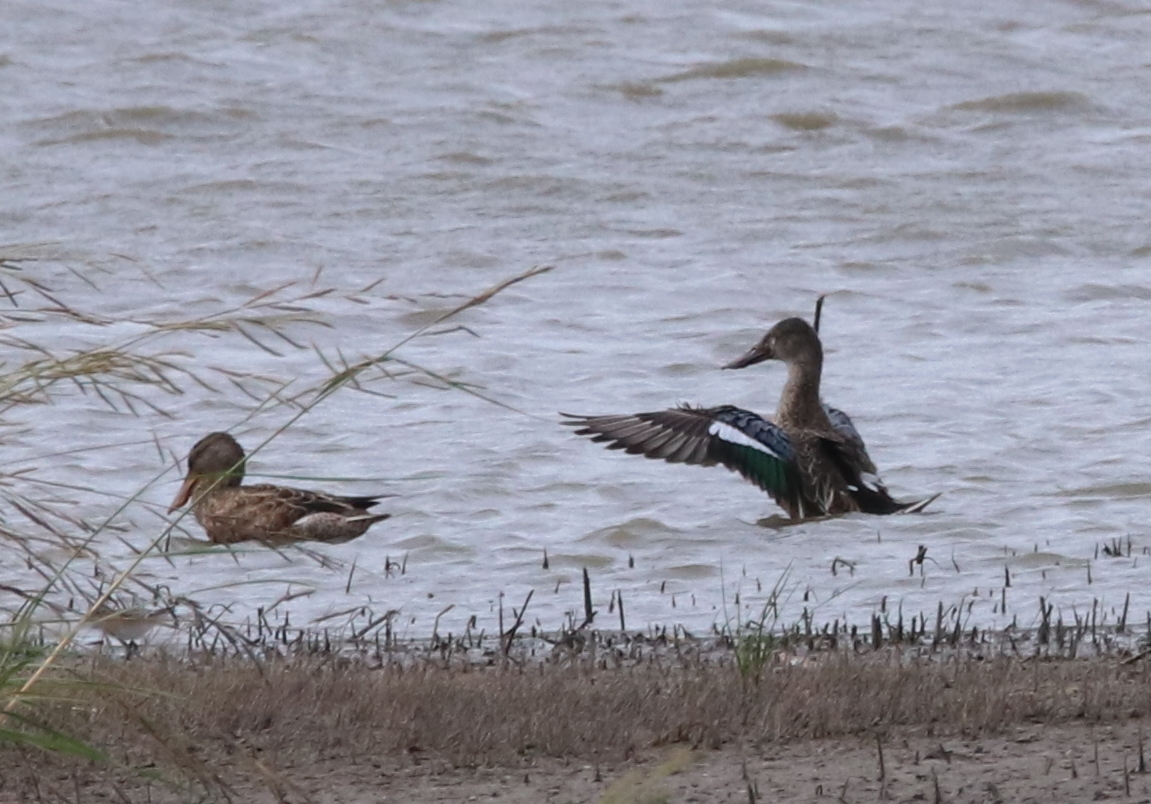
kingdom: Animalia
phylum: Chordata
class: Aves
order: Anseriformes
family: Anatidae
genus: Spatula
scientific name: Spatula clypeata
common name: Northern shoveler
